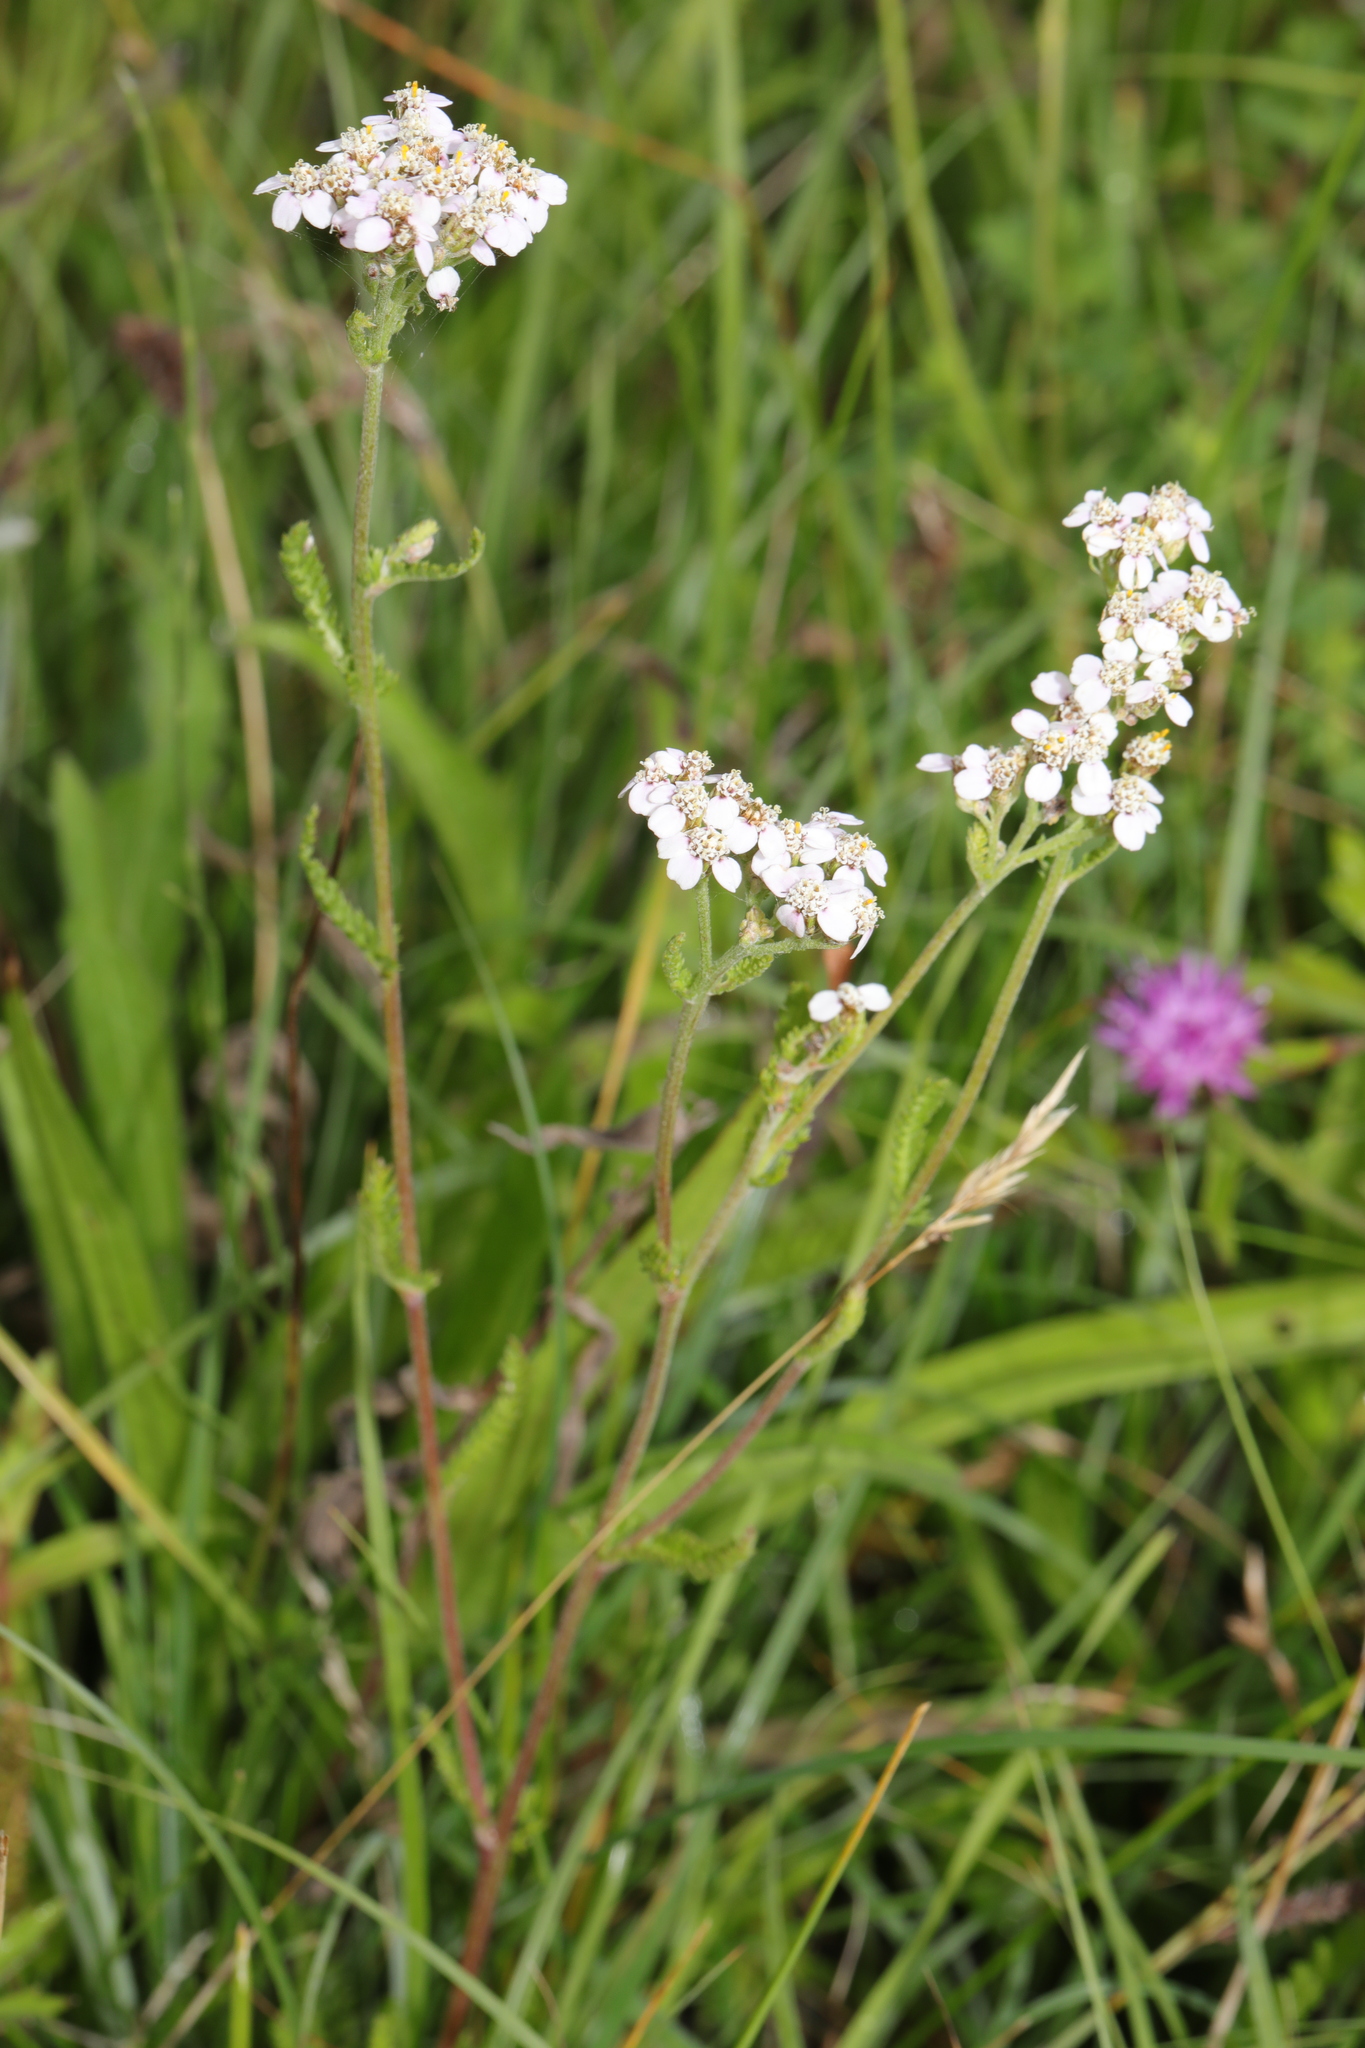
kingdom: Plantae
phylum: Tracheophyta
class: Magnoliopsida
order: Asterales
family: Asteraceae
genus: Achillea
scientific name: Achillea millefolium
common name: Yarrow
